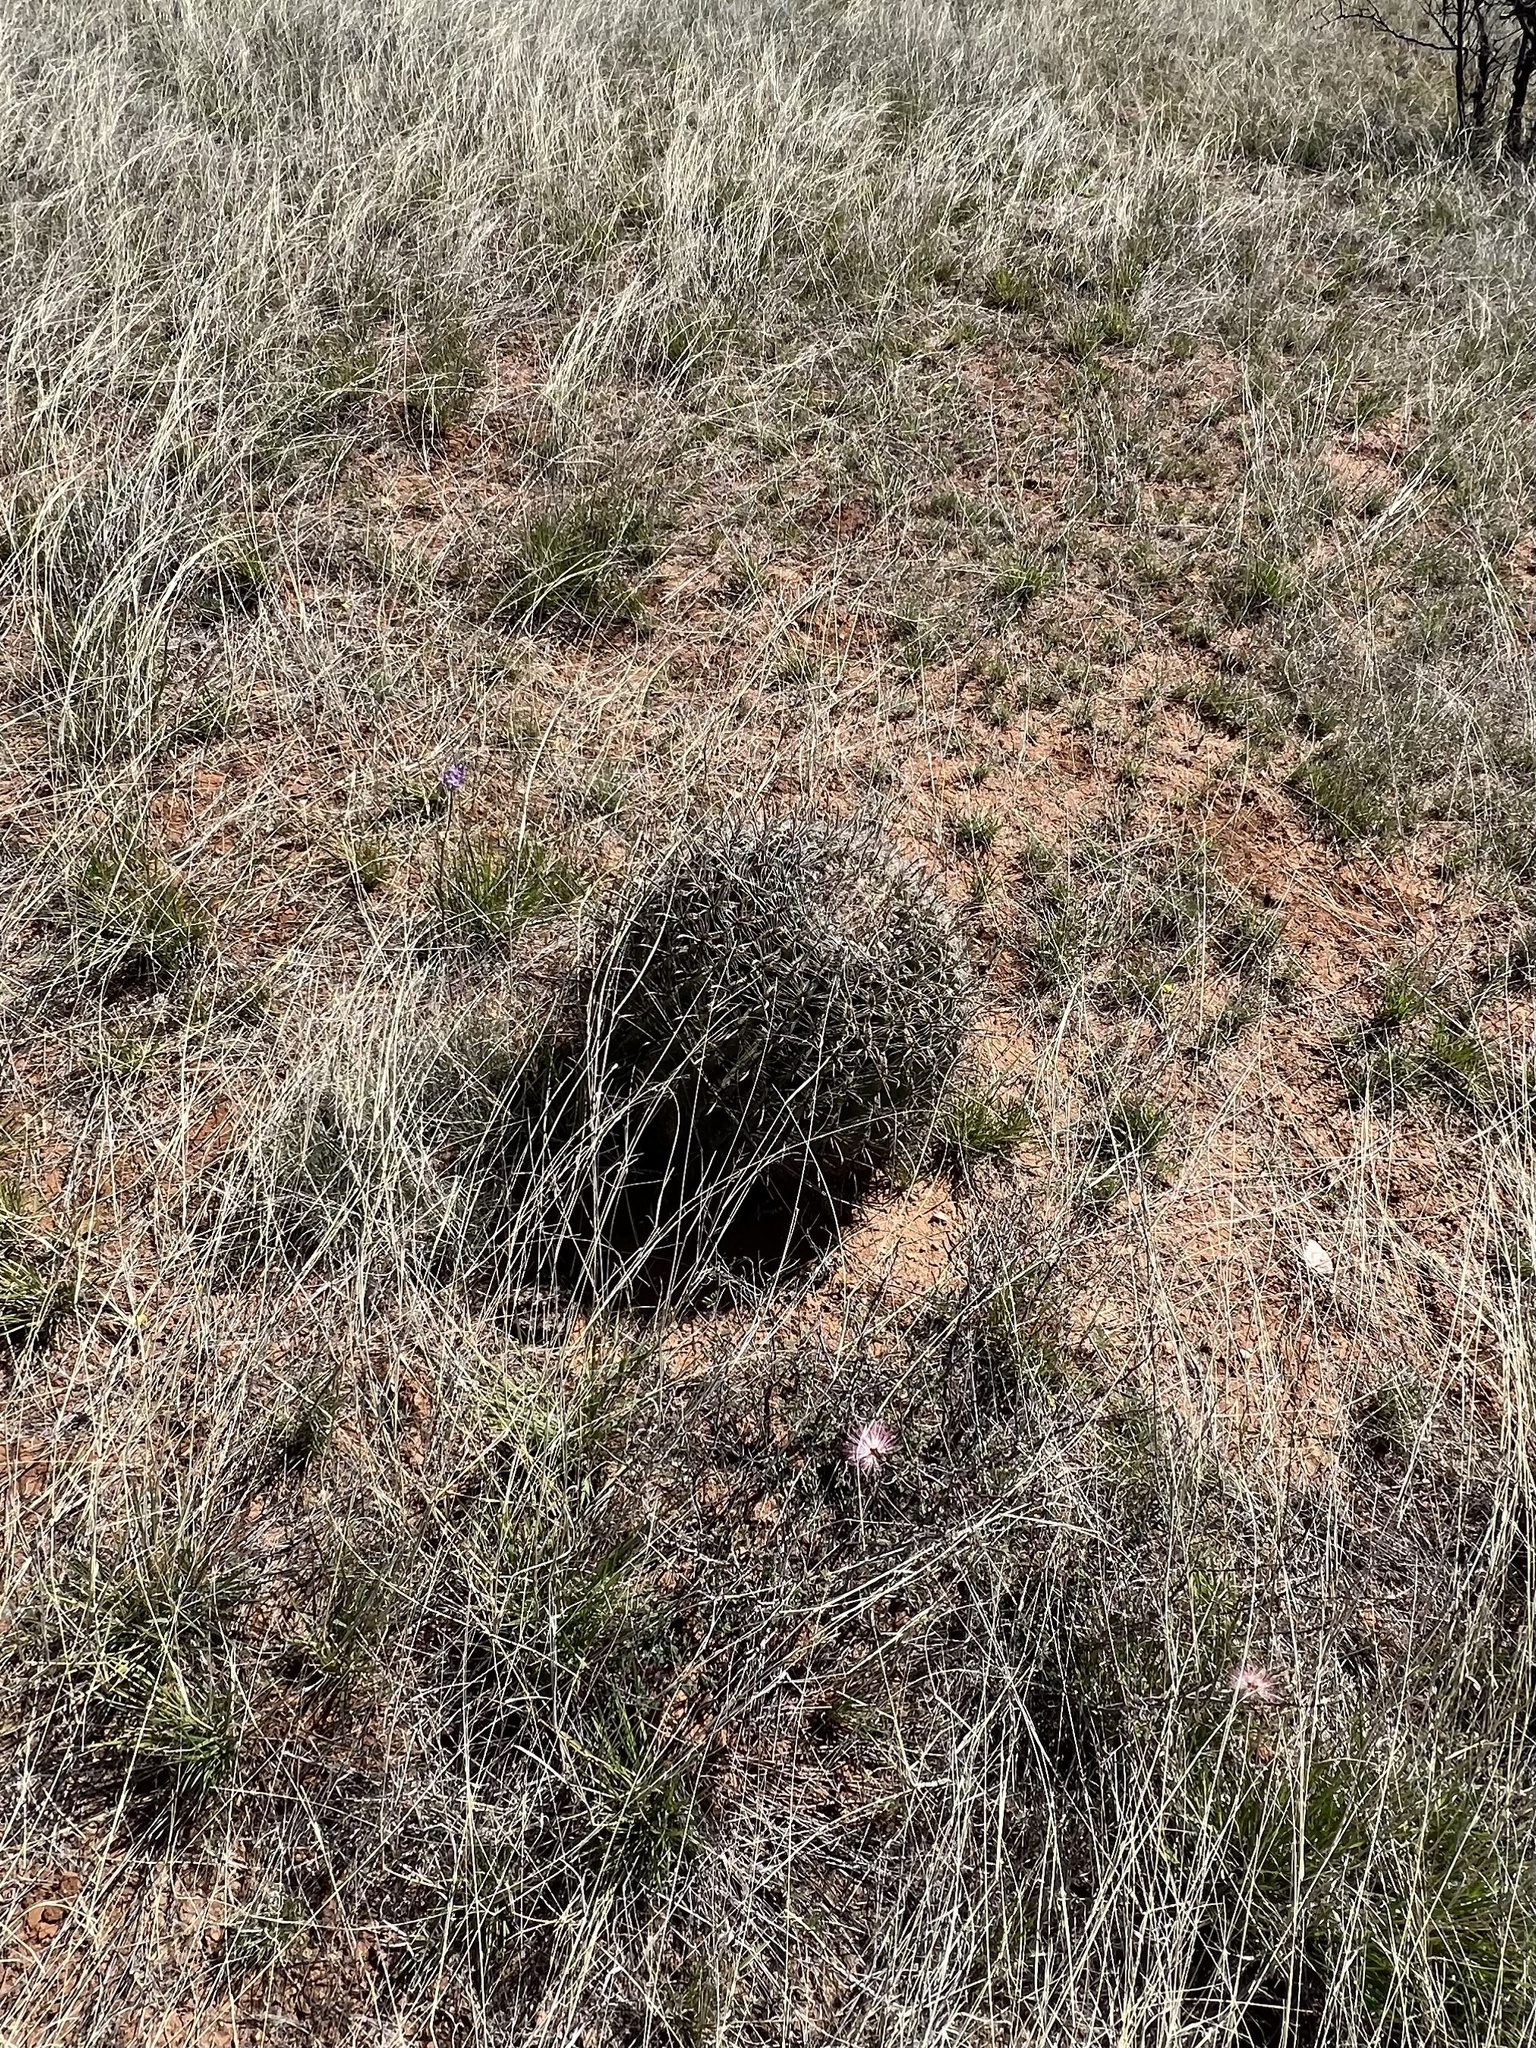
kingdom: Plantae
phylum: Tracheophyta
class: Magnoliopsida
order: Caryophyllales
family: Cactaceae
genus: Ferocactus
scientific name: Ferocactus wislizeni
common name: Candy barrel cactus
